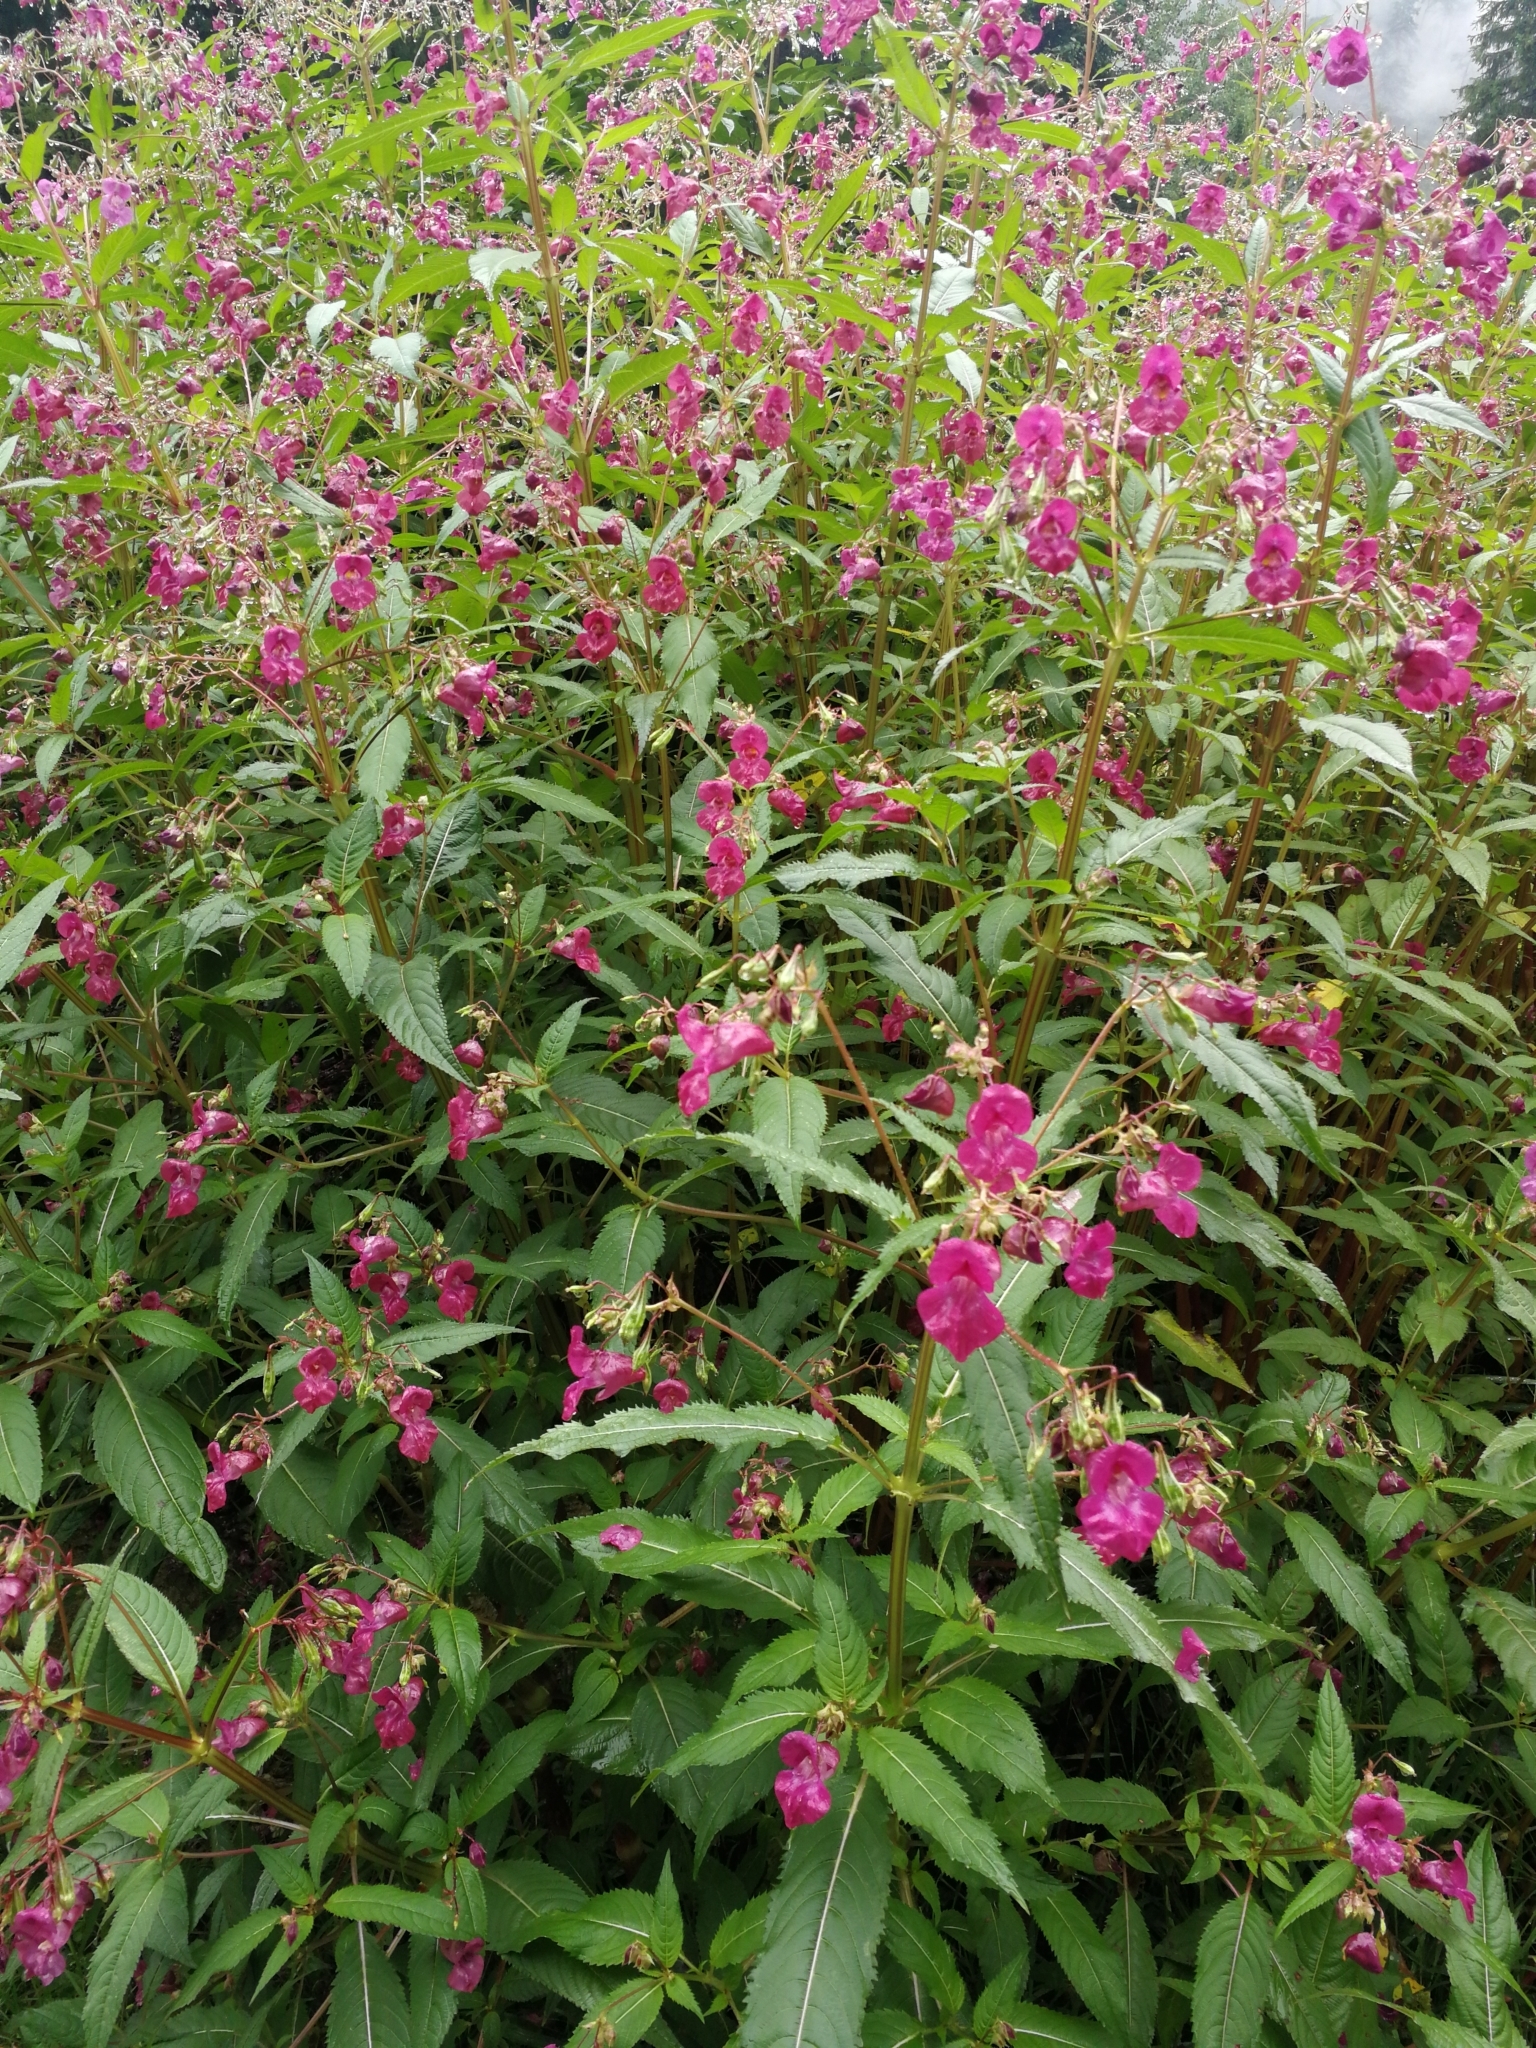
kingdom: Plantae
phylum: Tracheophyta
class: Magnoliopsida
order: Ericales
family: Balsaminaceae
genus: Impatiens
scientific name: Impatiens glandulifera
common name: Himalayan balsam
